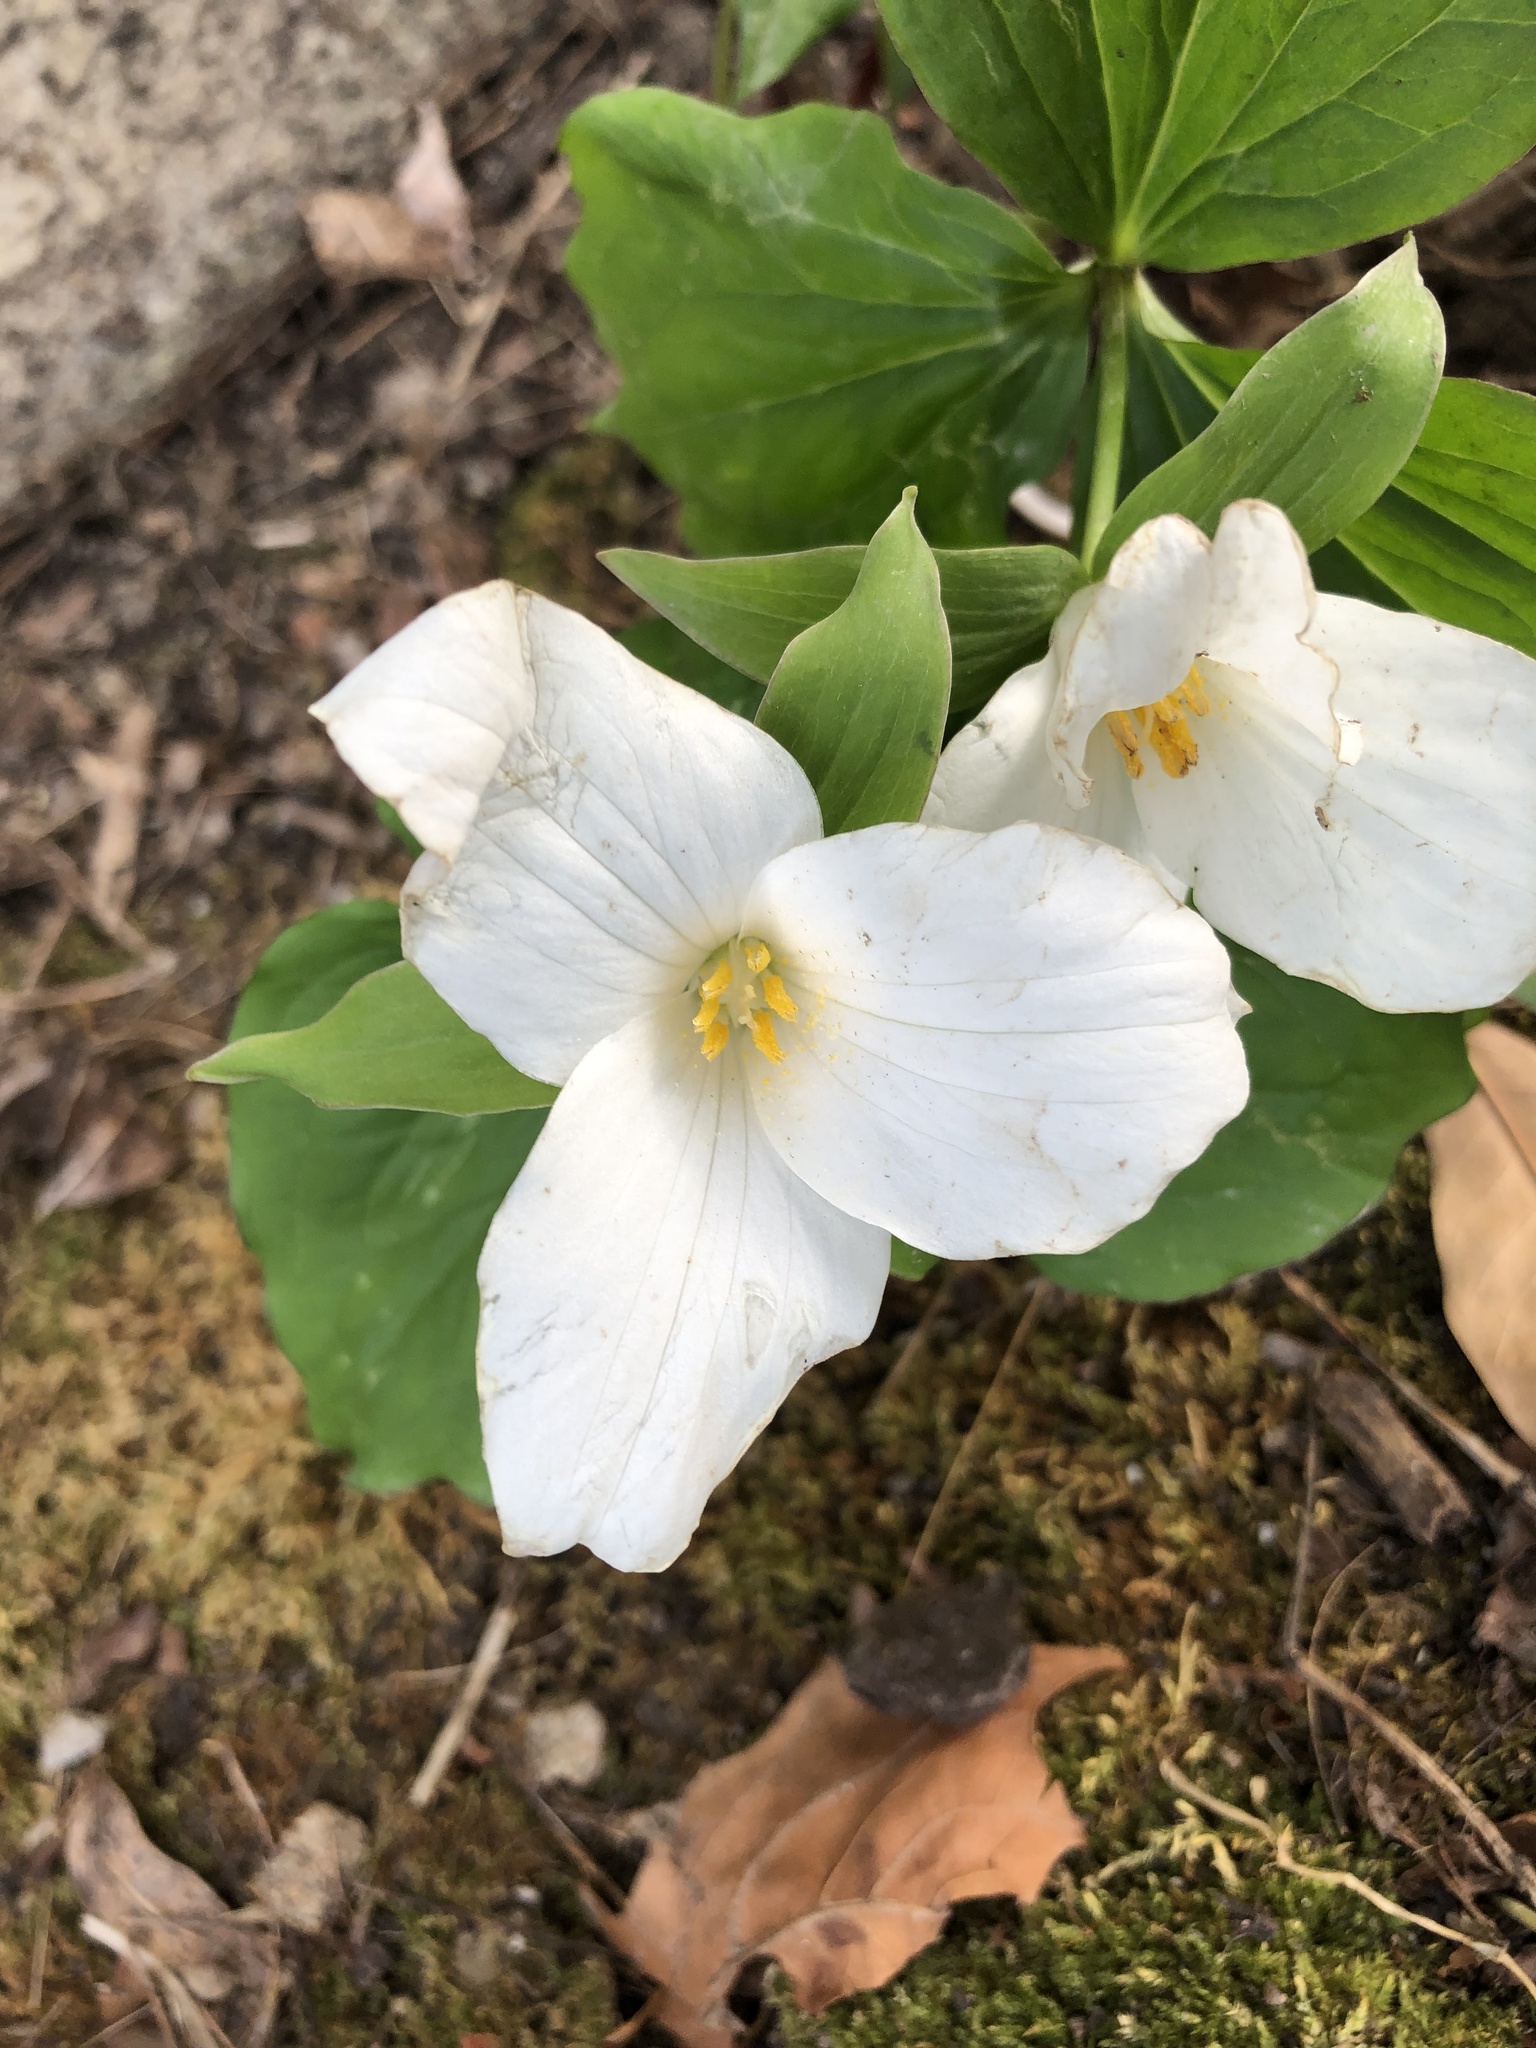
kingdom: Plantae
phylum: Tracheophyta
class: Liliopsida
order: Liliales
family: Melanthiaceae
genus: Trillium
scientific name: Trillium grandiflorum
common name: Great white trillium
